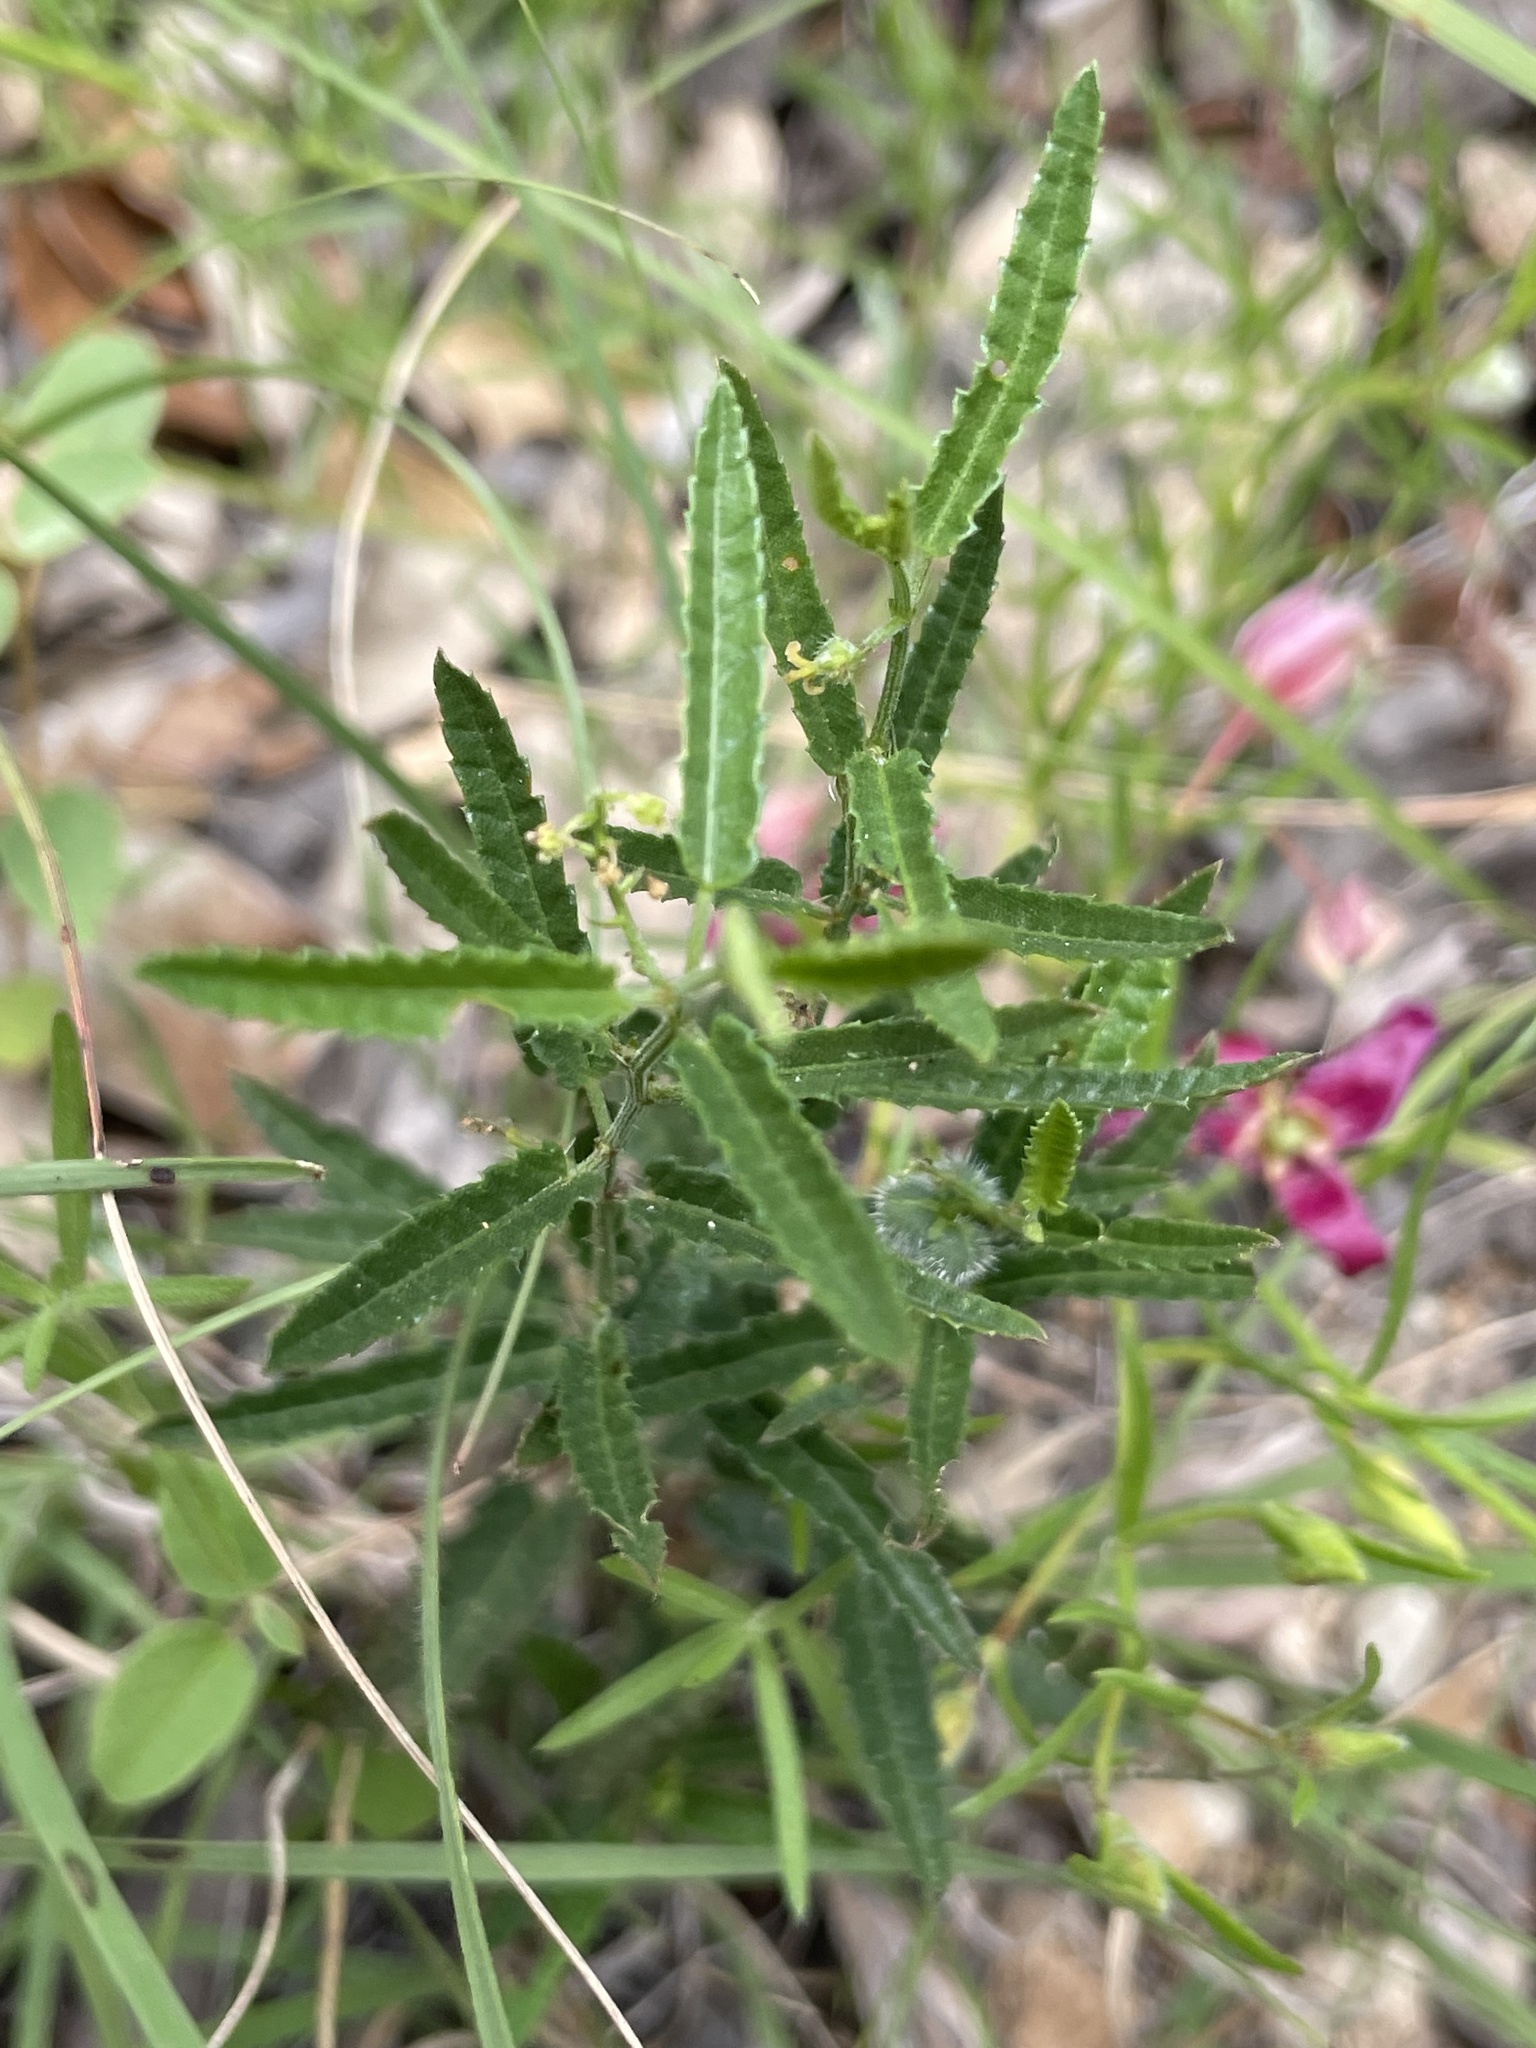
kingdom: Plantae
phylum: Tracheophyta
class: Magnoliopsida
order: Malpighiales
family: Euphorbiaceae
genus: Tragia
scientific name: Tragia ramosa
